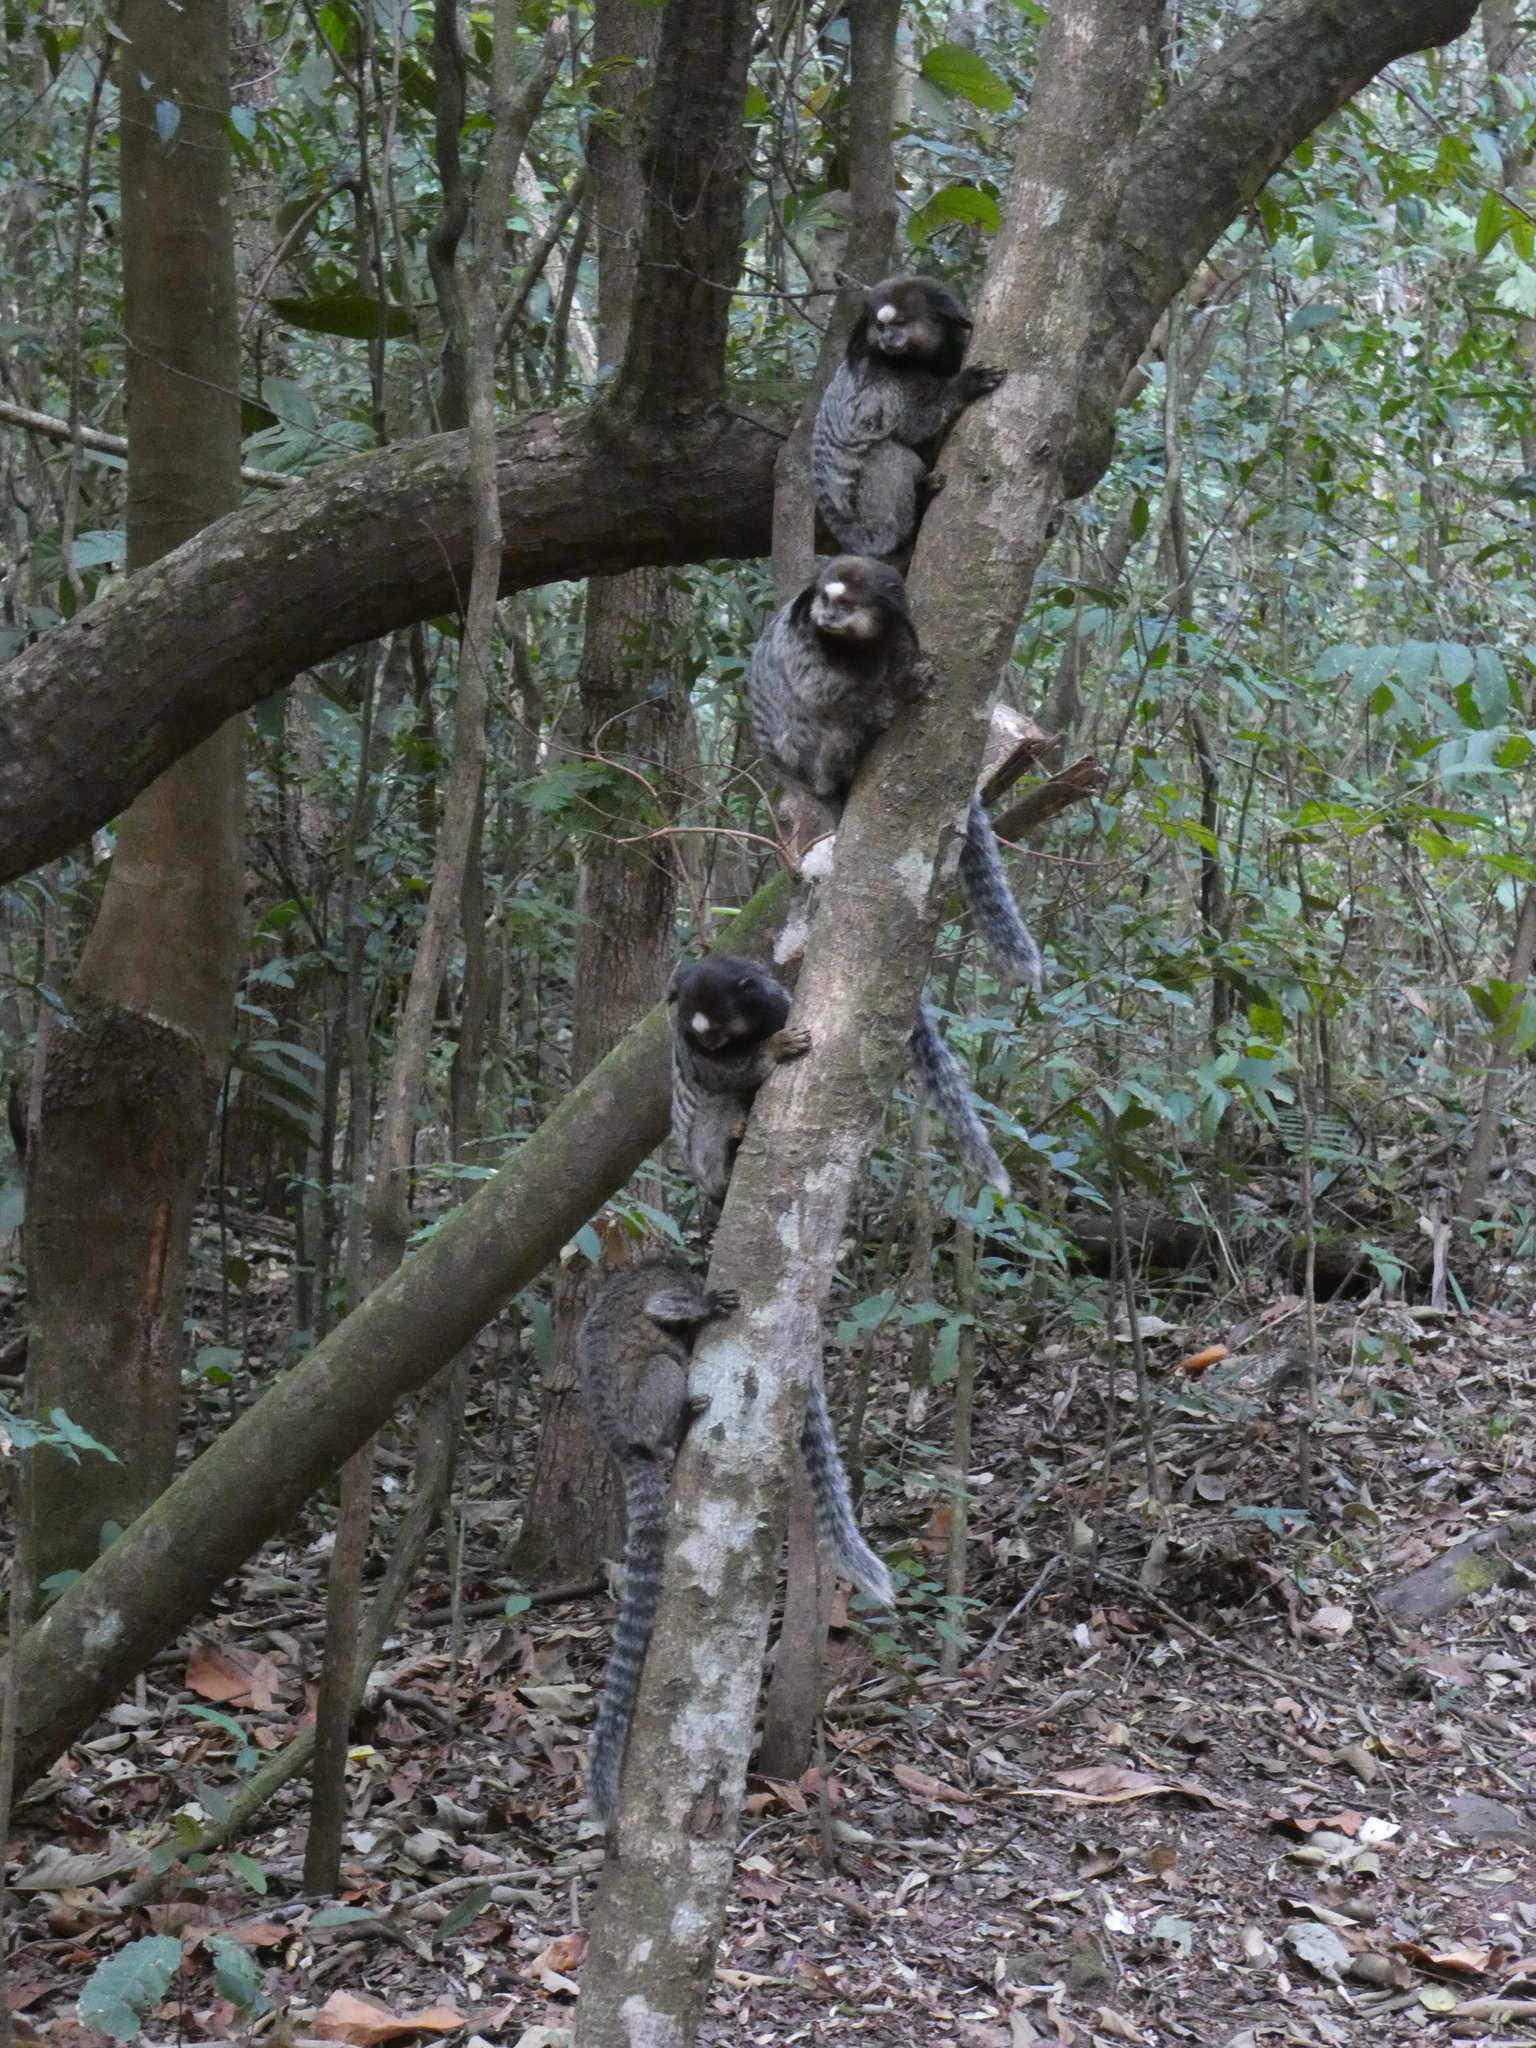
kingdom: Animalia
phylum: Chordata
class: Mammalia
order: Primates
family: Callitrichidae
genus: Callithrix
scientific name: Callithrix penicillata
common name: Black-tufted marmoset
